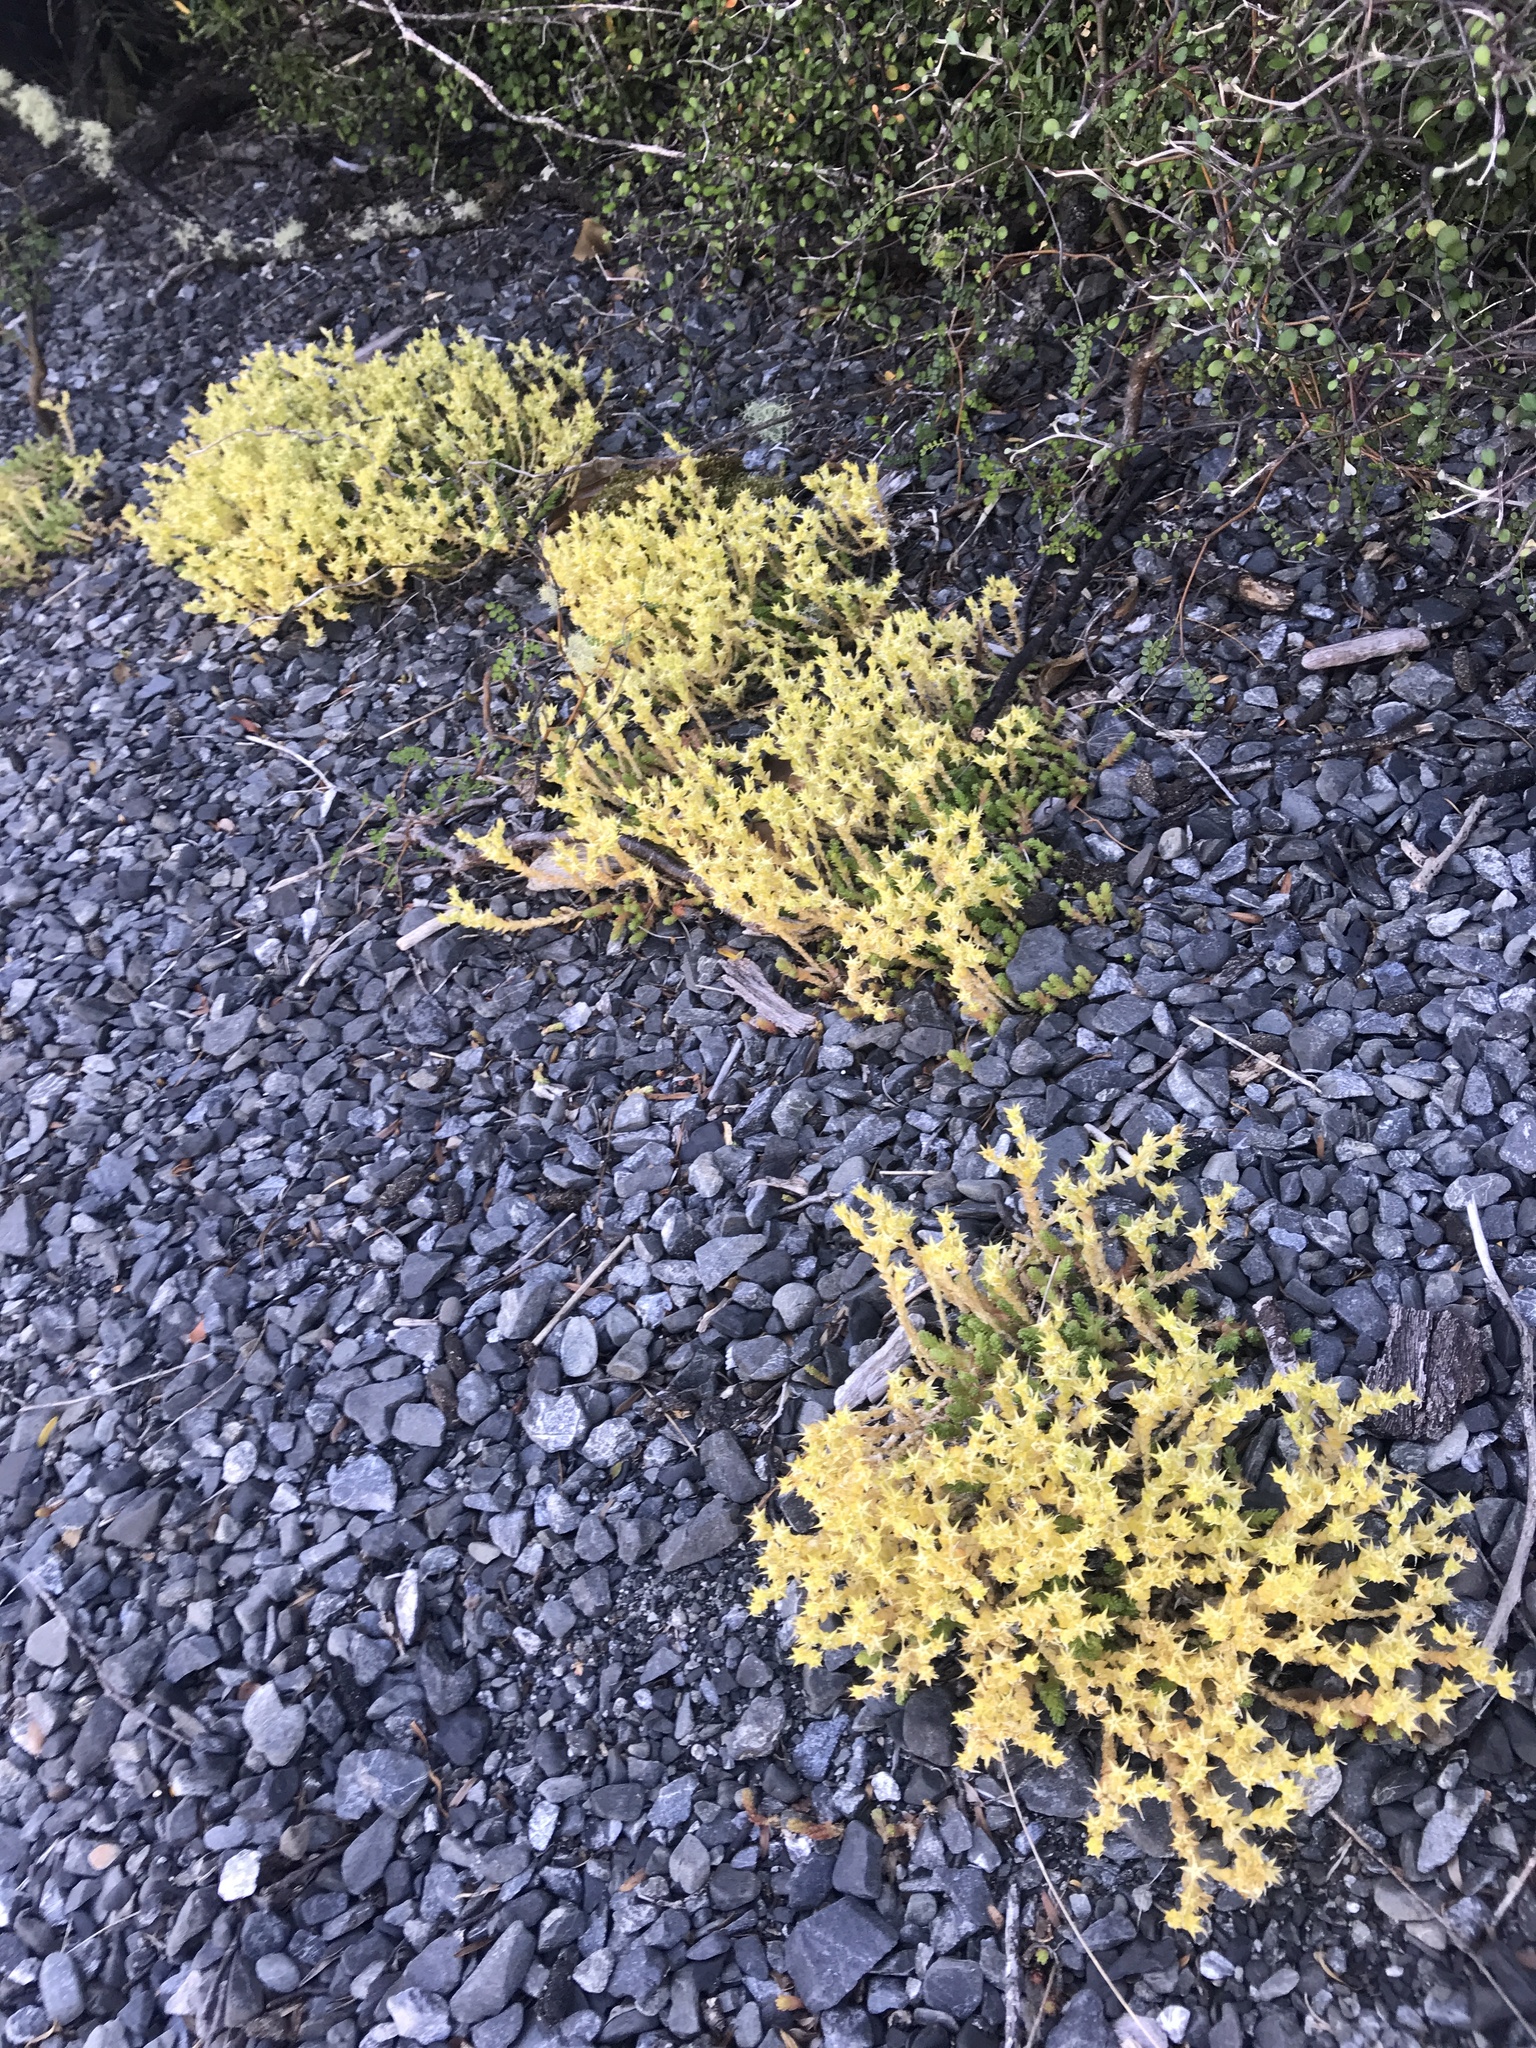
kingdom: Plantae
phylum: Tracheophyta
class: Magnoliopsida
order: Saxifragales
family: Crassulaceae
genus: Sedum
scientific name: Sedum acre
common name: Biting stonecrop
